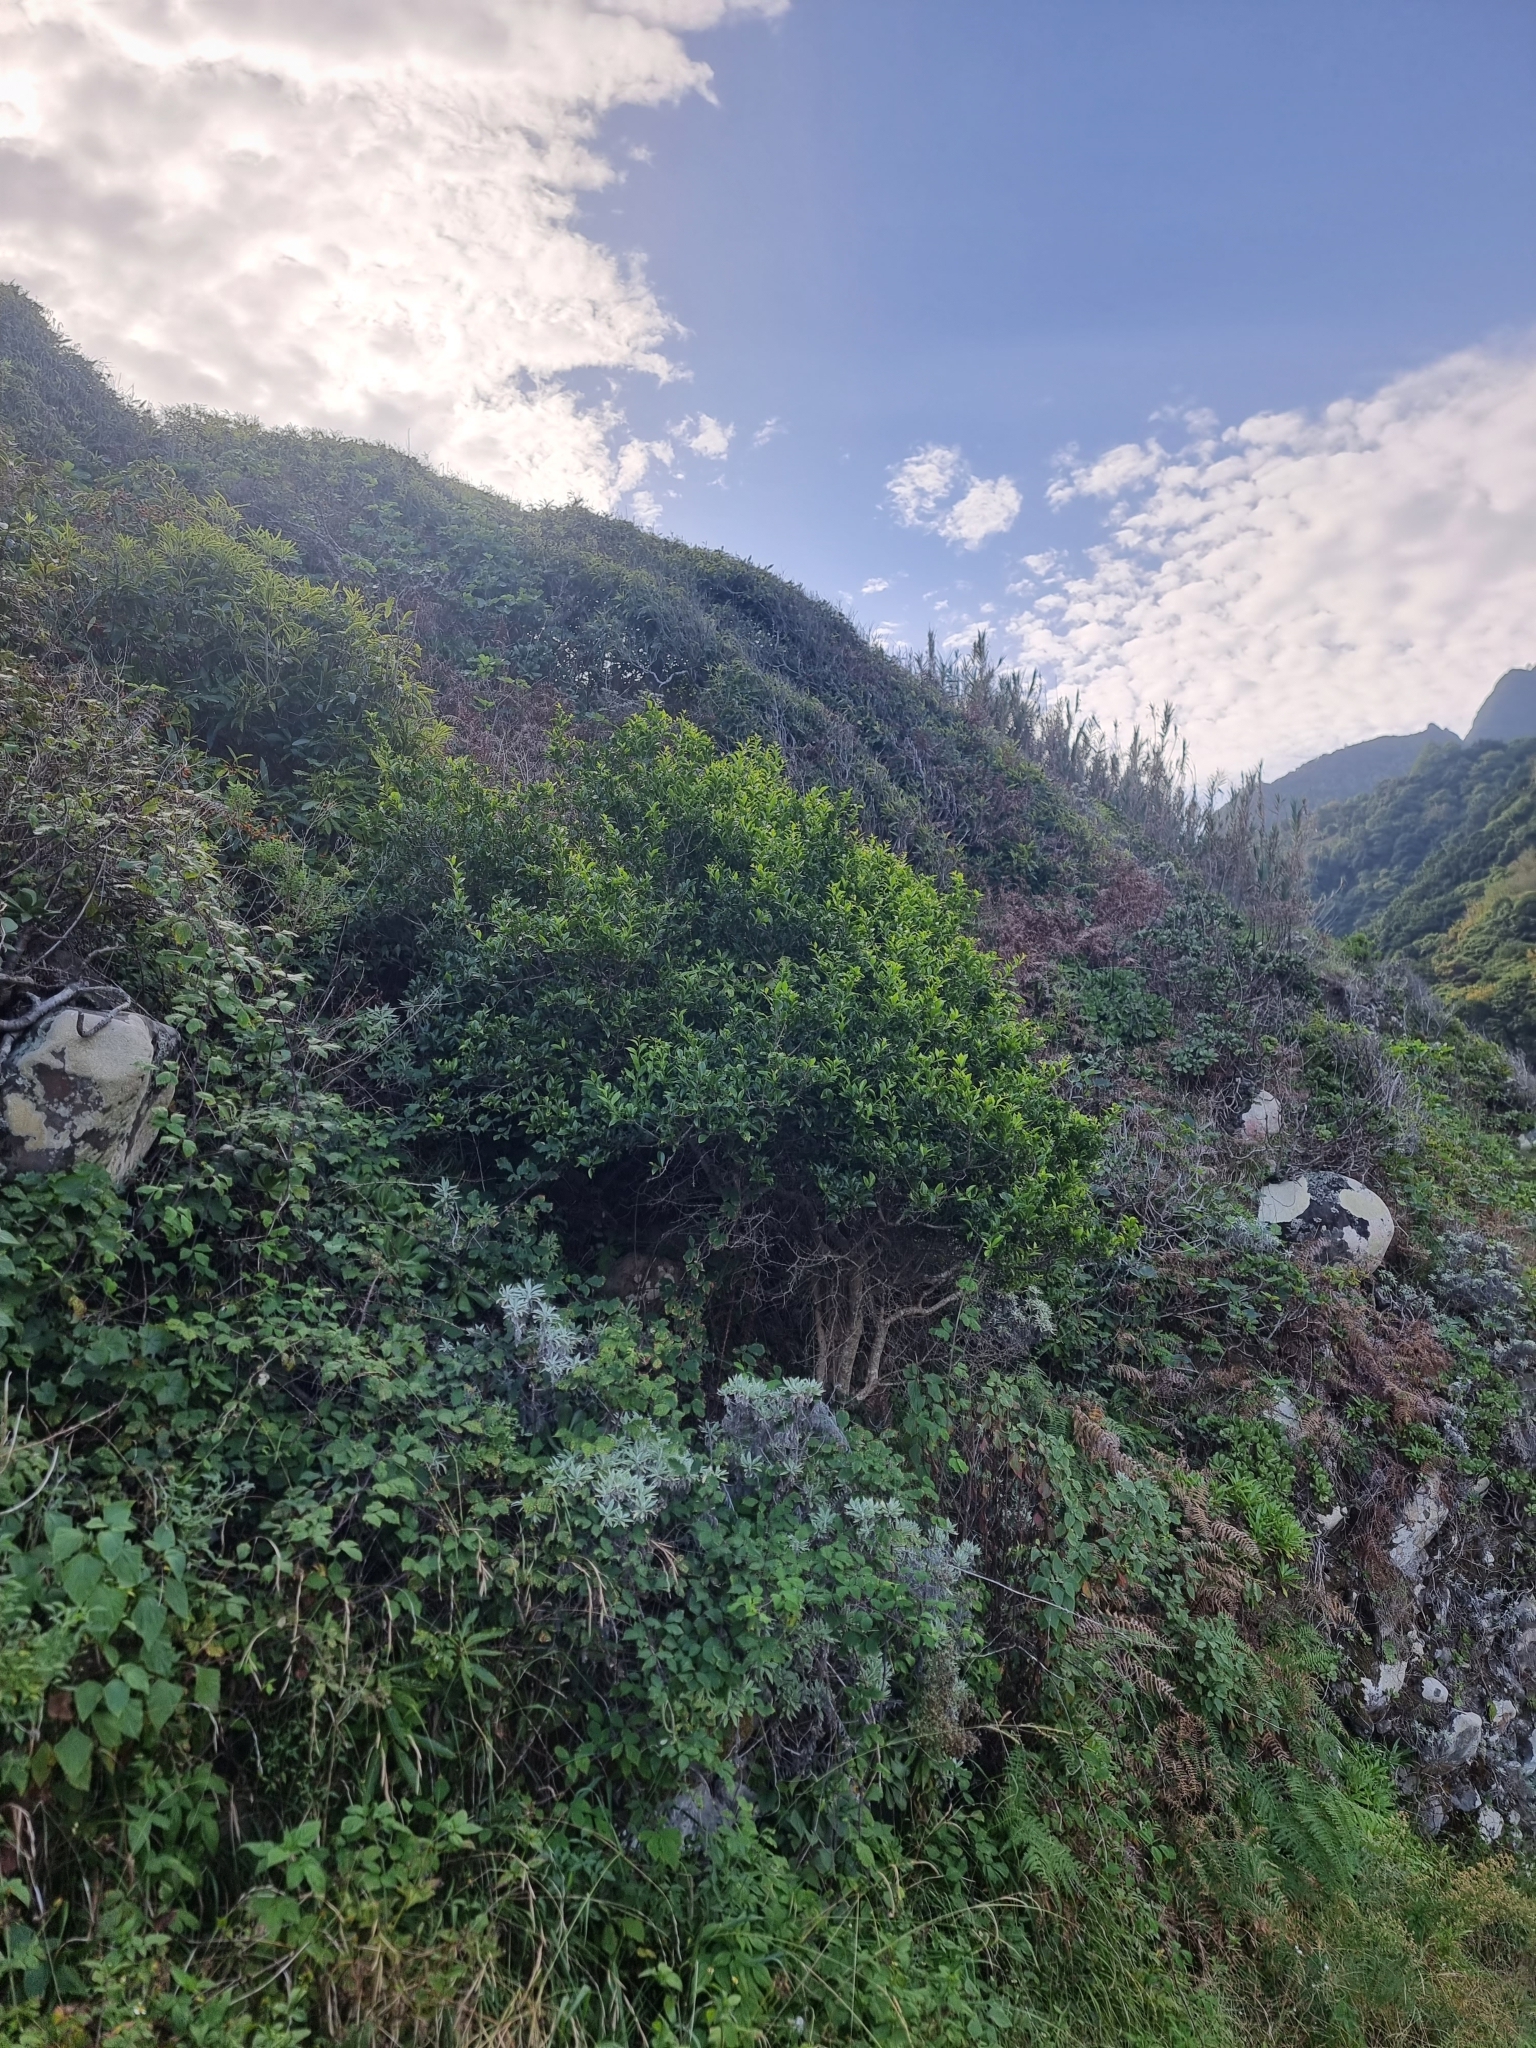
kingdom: Plantae
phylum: Tracheophyta
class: Magnoliopsida
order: Celastrales
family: Celastraceae
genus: Gymnosporia
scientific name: Gymnosporia dryandri
